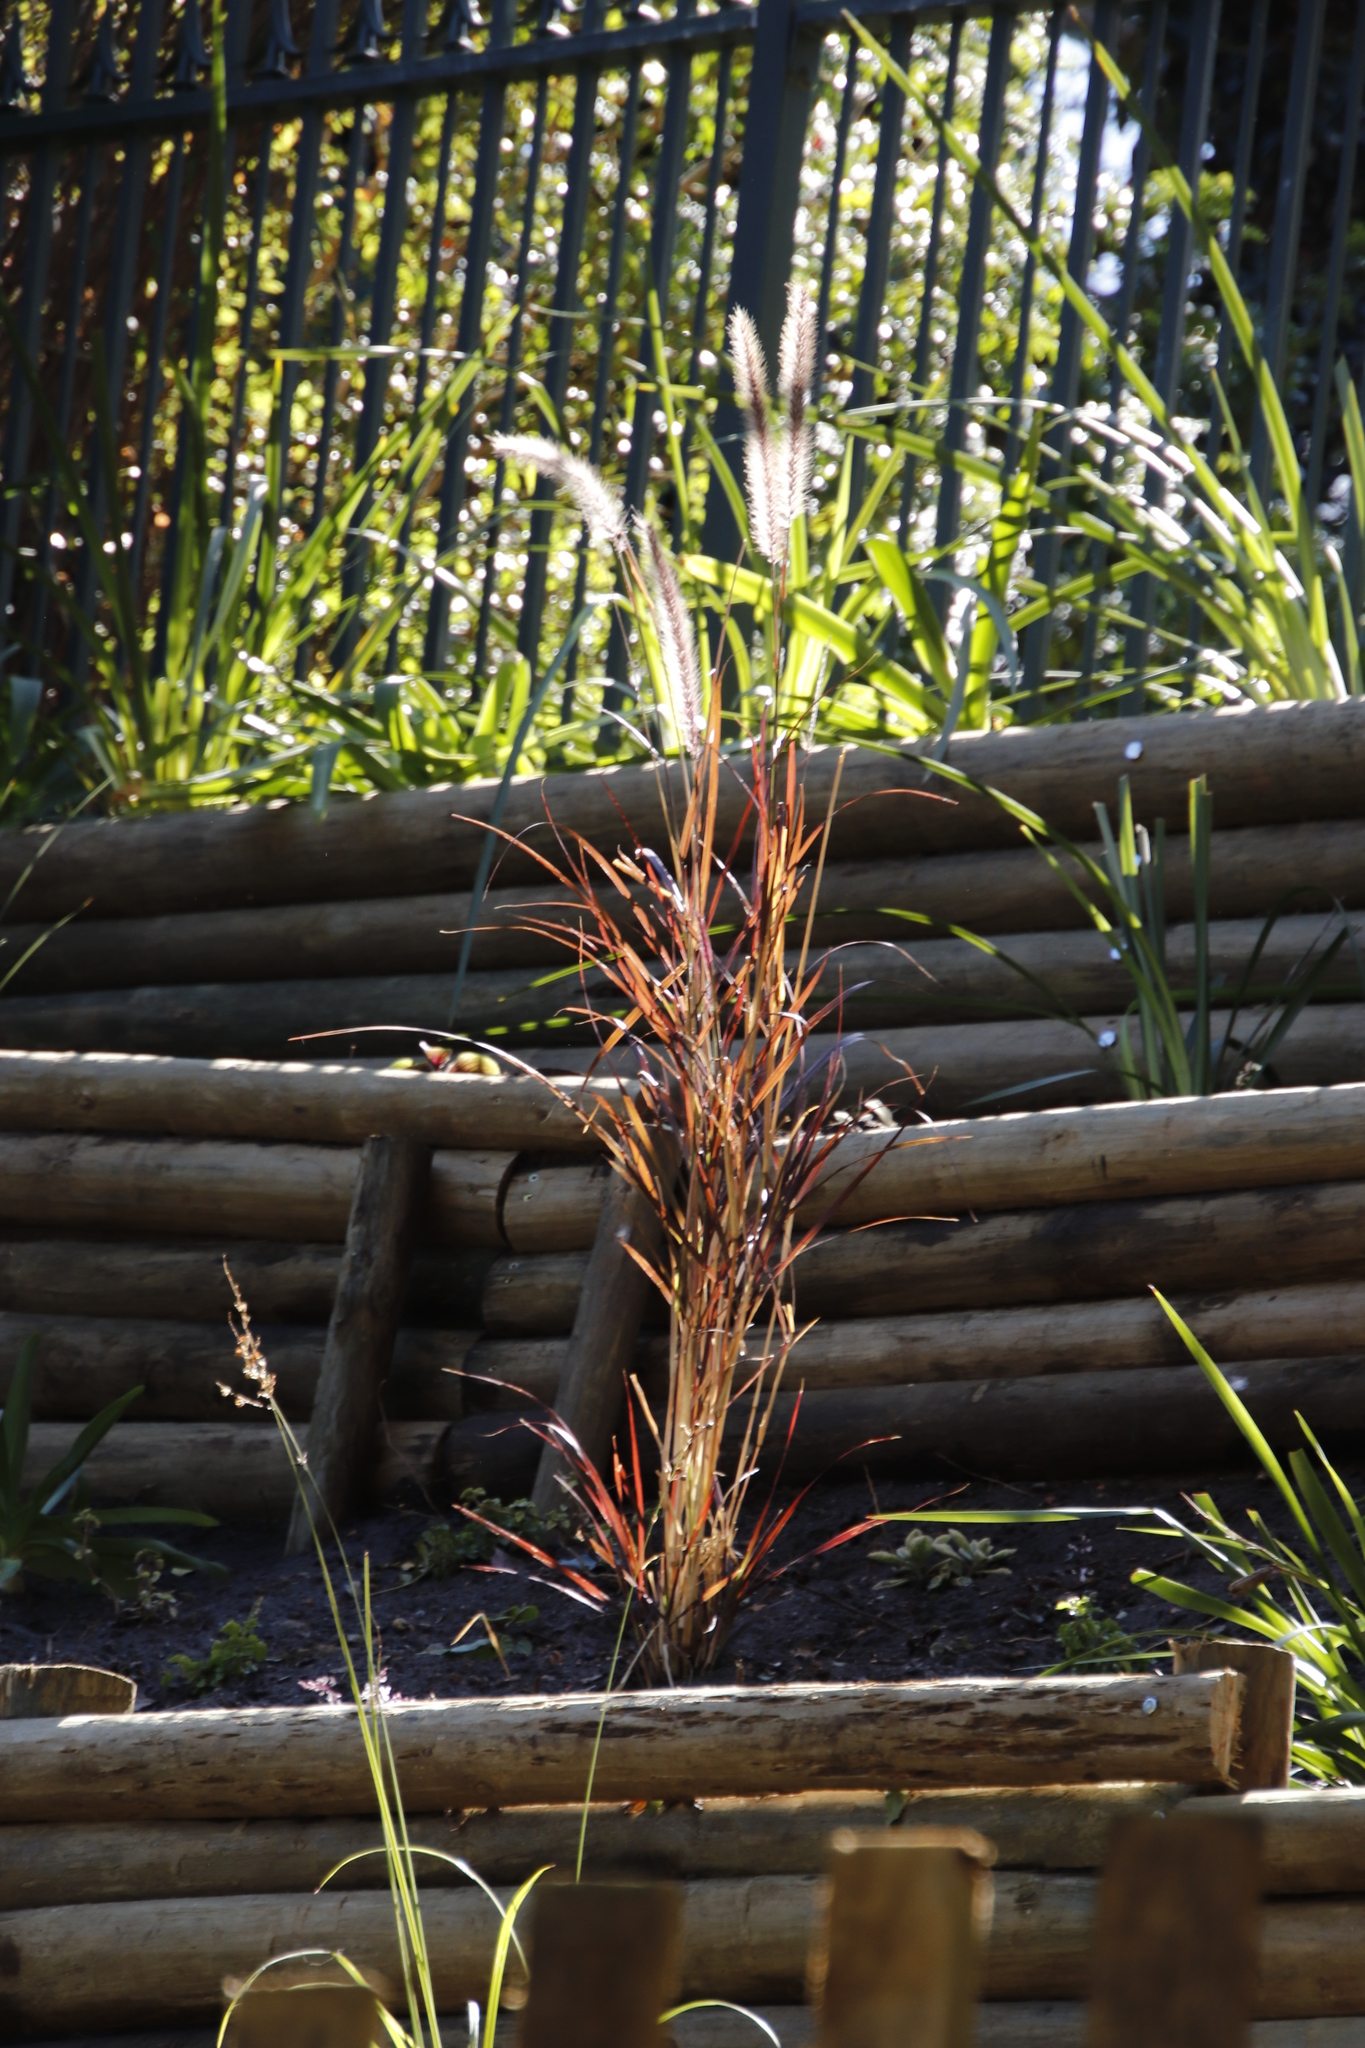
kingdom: Plantae
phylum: Tracheophyta
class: Liliopsida
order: Poales
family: Poaceae
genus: Cenchrus
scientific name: Cenchrus setaceus
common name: Crimson fountaingrass
